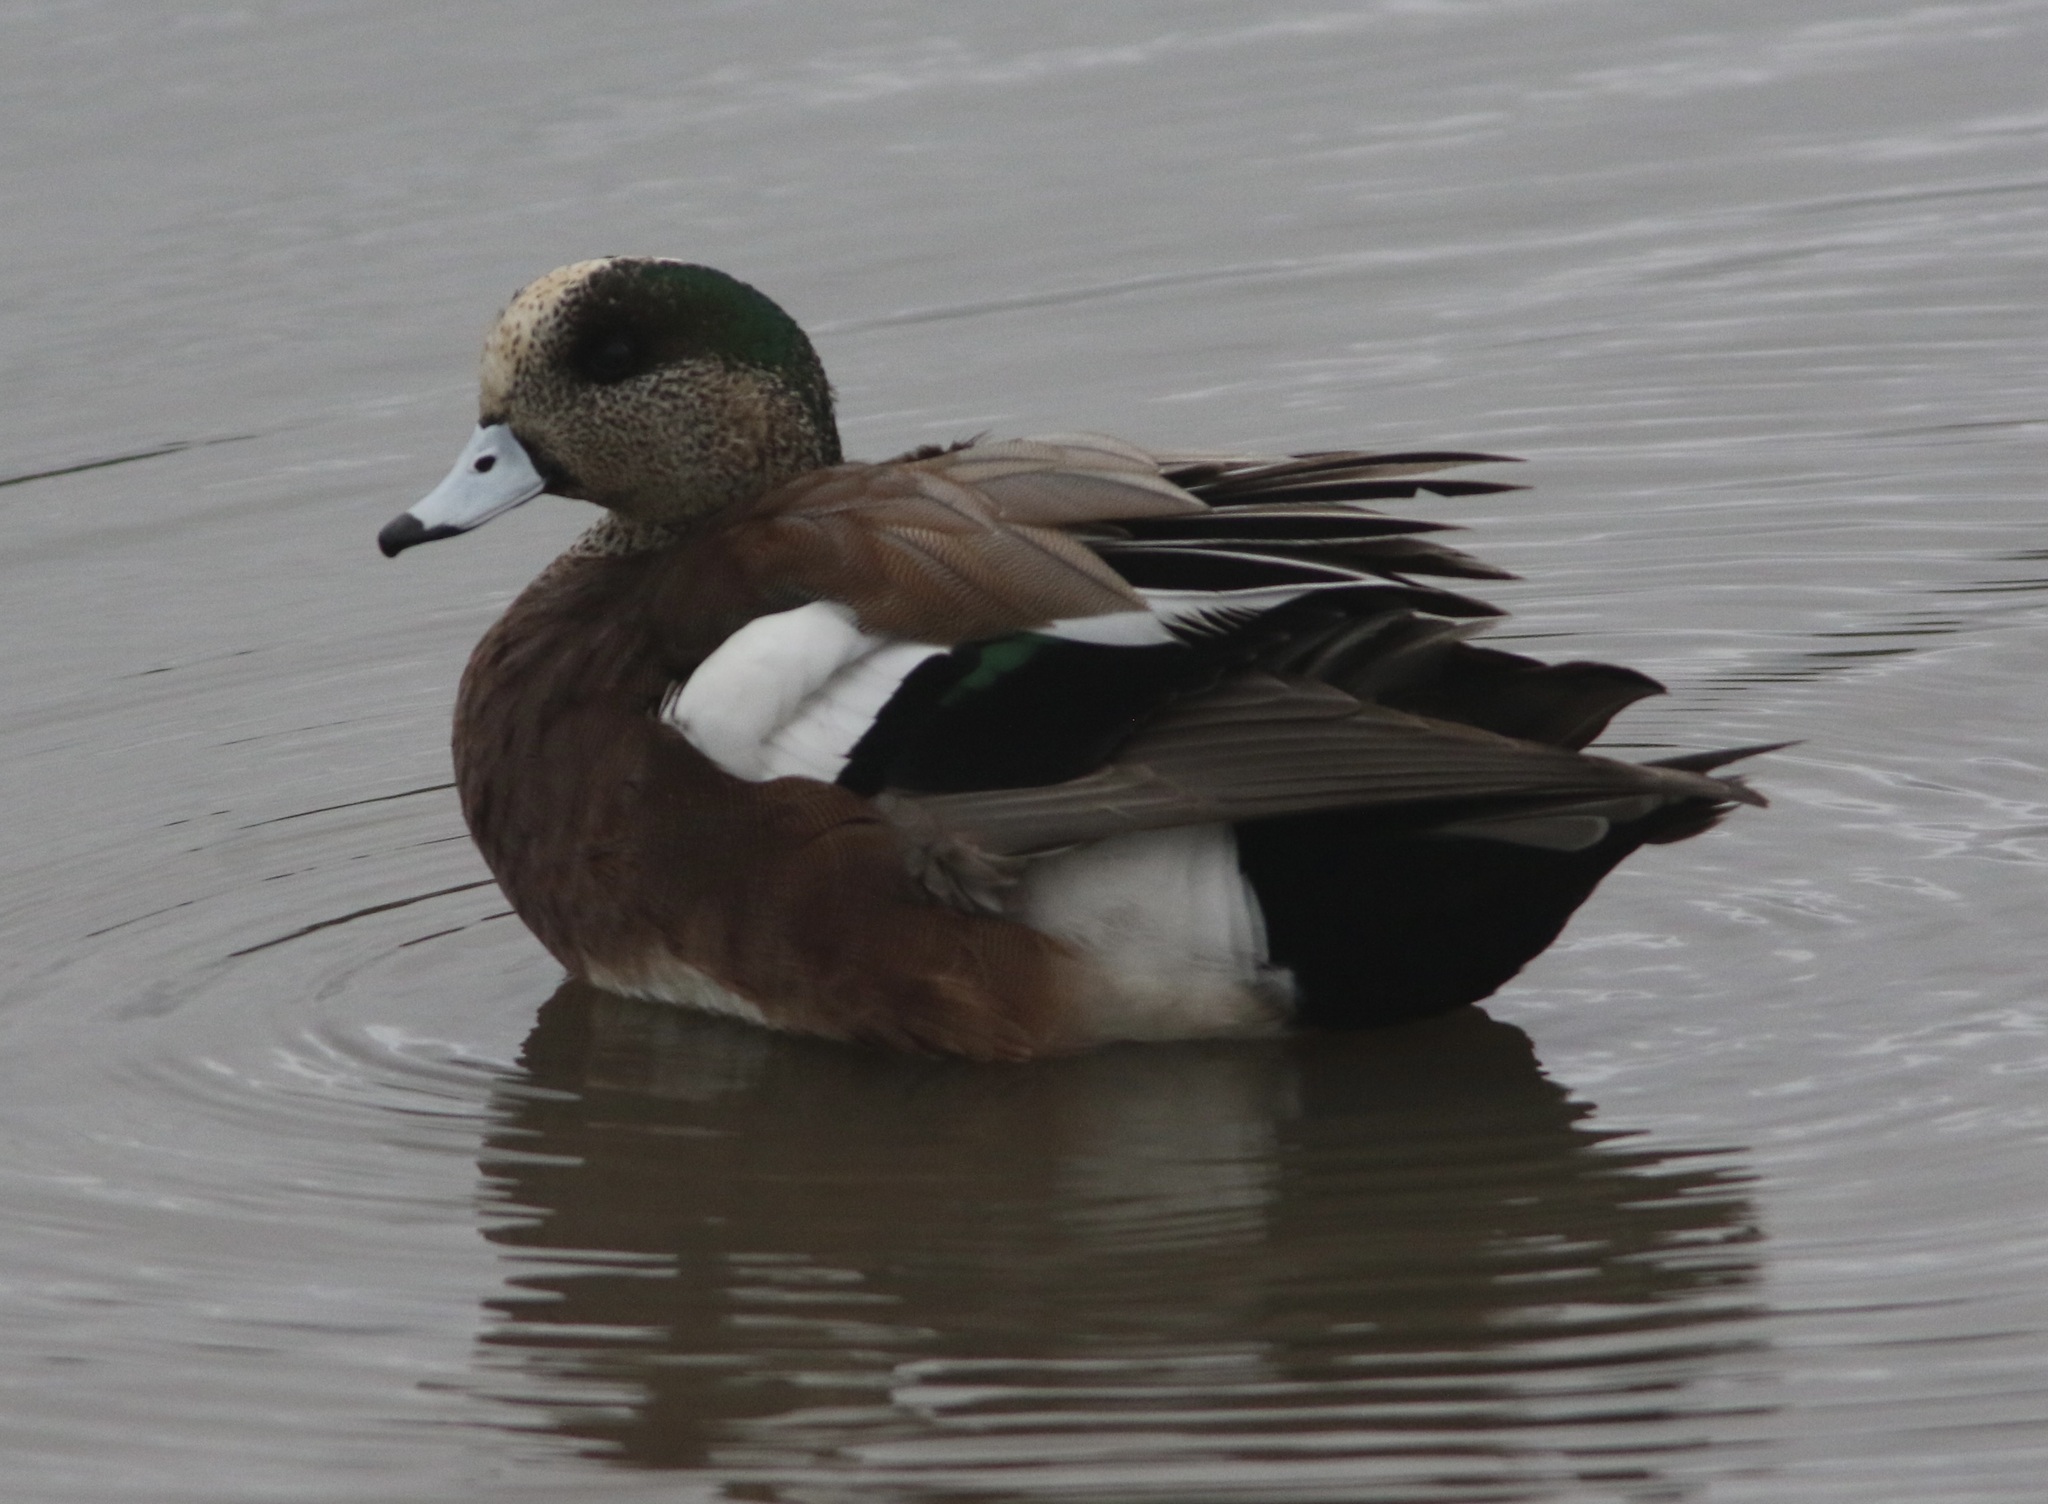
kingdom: Animalia
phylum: Chordata
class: Aves
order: Anseriformes
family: Anatidae
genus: Mareca
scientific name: Mareca americana
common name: American wigeon
